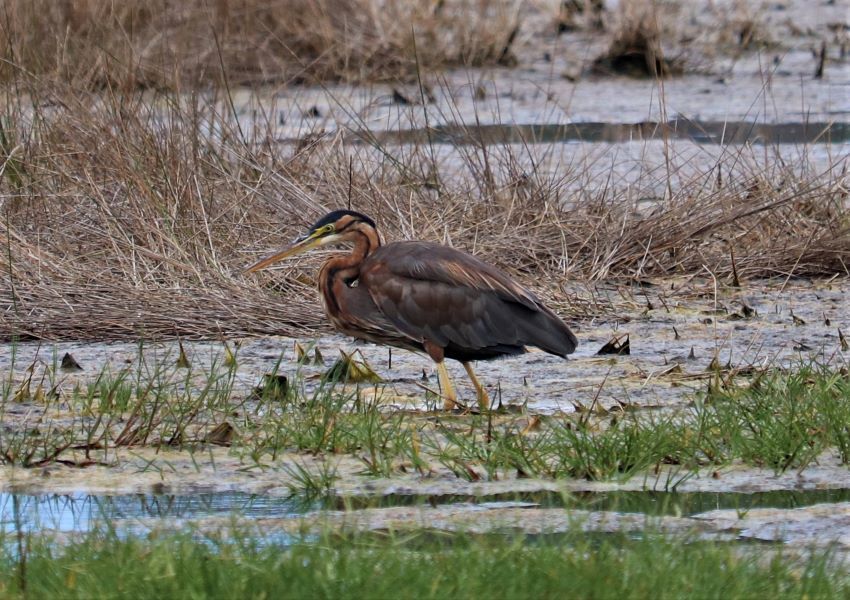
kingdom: Animalia
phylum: Chordata
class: Aves
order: Pelecaniformes
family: Ardeidae
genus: Ardea
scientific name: Ardea purpurea
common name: Purple heron
